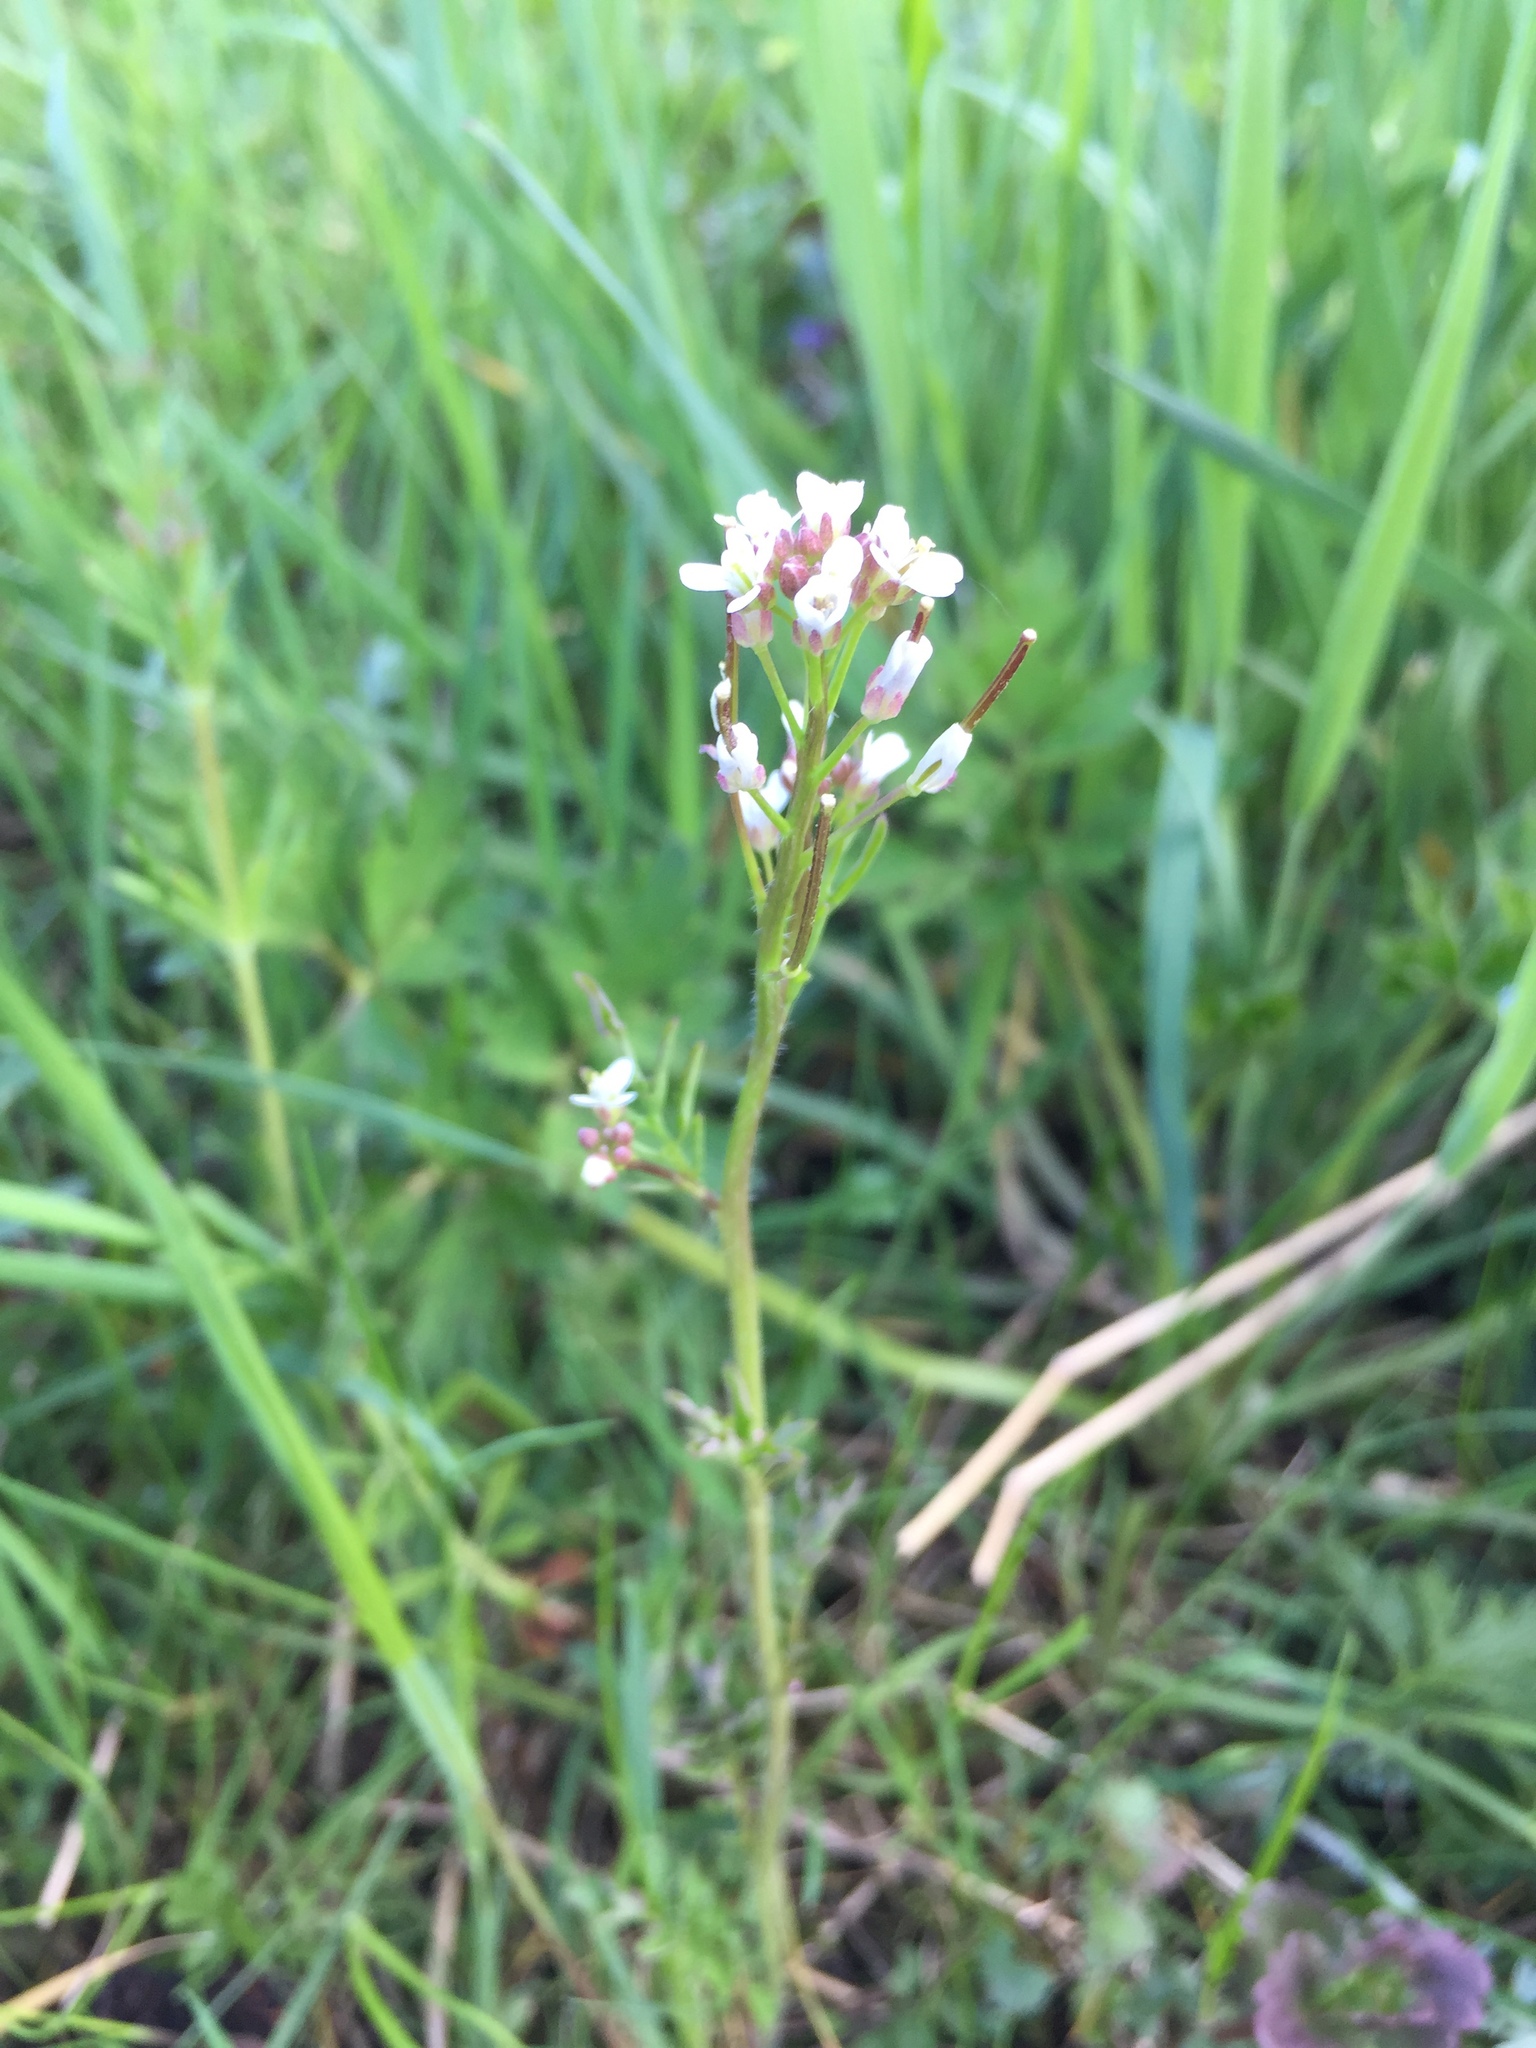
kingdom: Plantae
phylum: Tracheophyta
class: Magnoliopsida
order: Brassicales
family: Brassicaceae
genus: Cardamine
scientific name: Cardamine hirsuta
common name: Hairy bittercress
